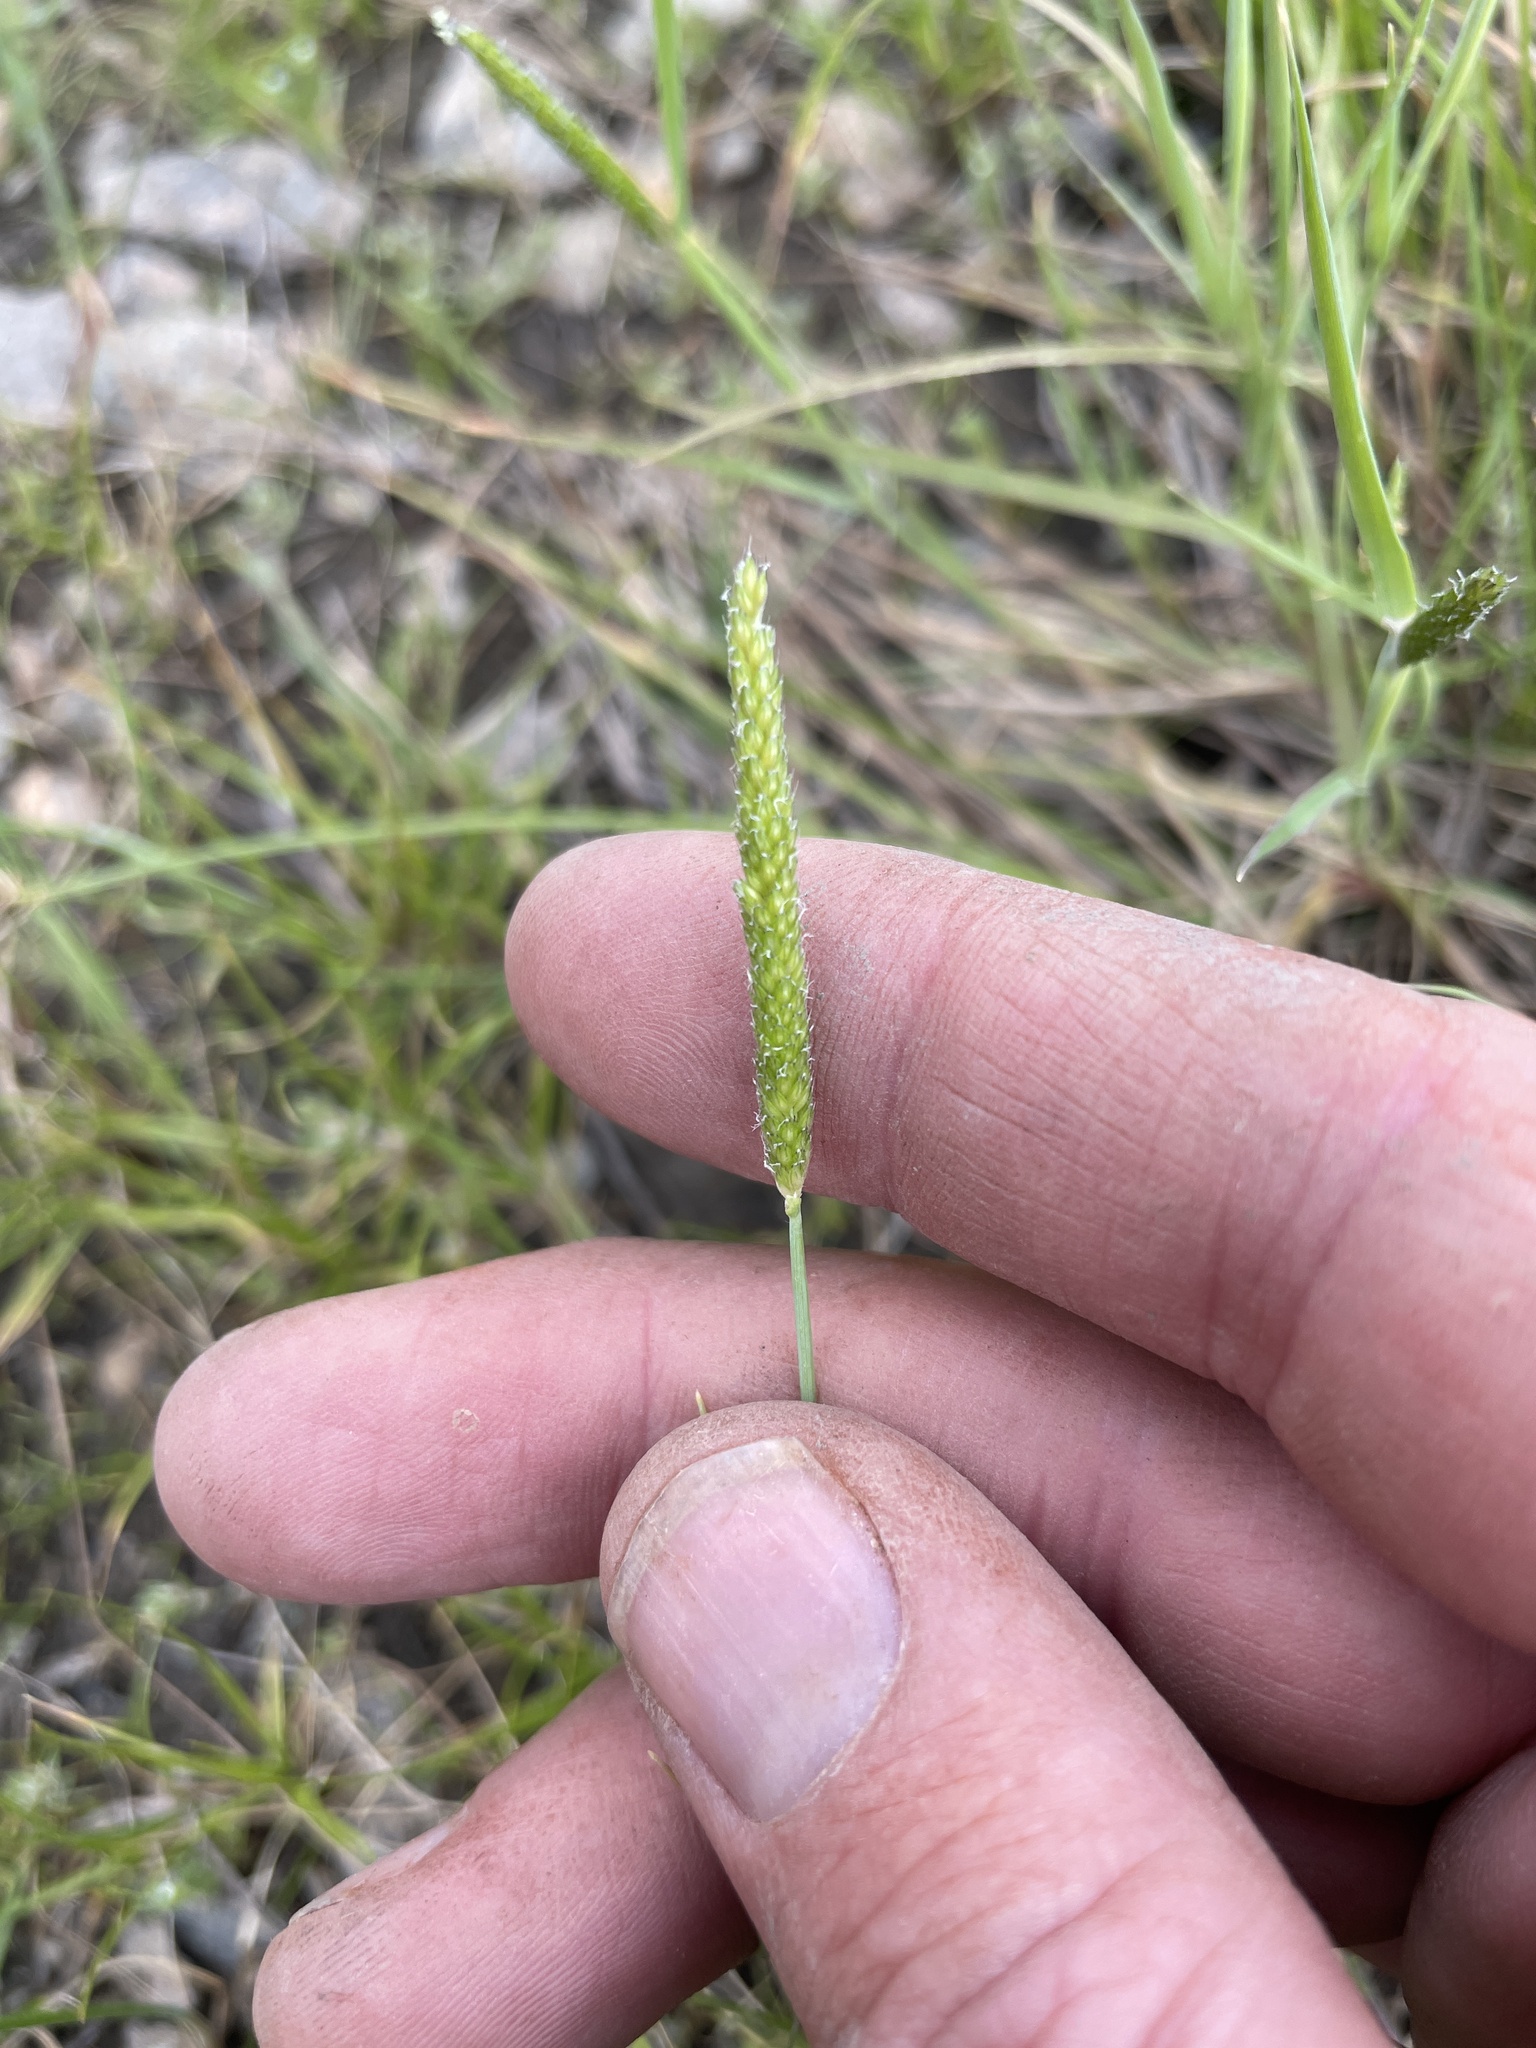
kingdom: Plantae
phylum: Tracheophyta
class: Liliopsida
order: Poales
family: Poaceae
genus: Alopecurus
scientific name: Alopecurus aequalis
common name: Orange foxtail
